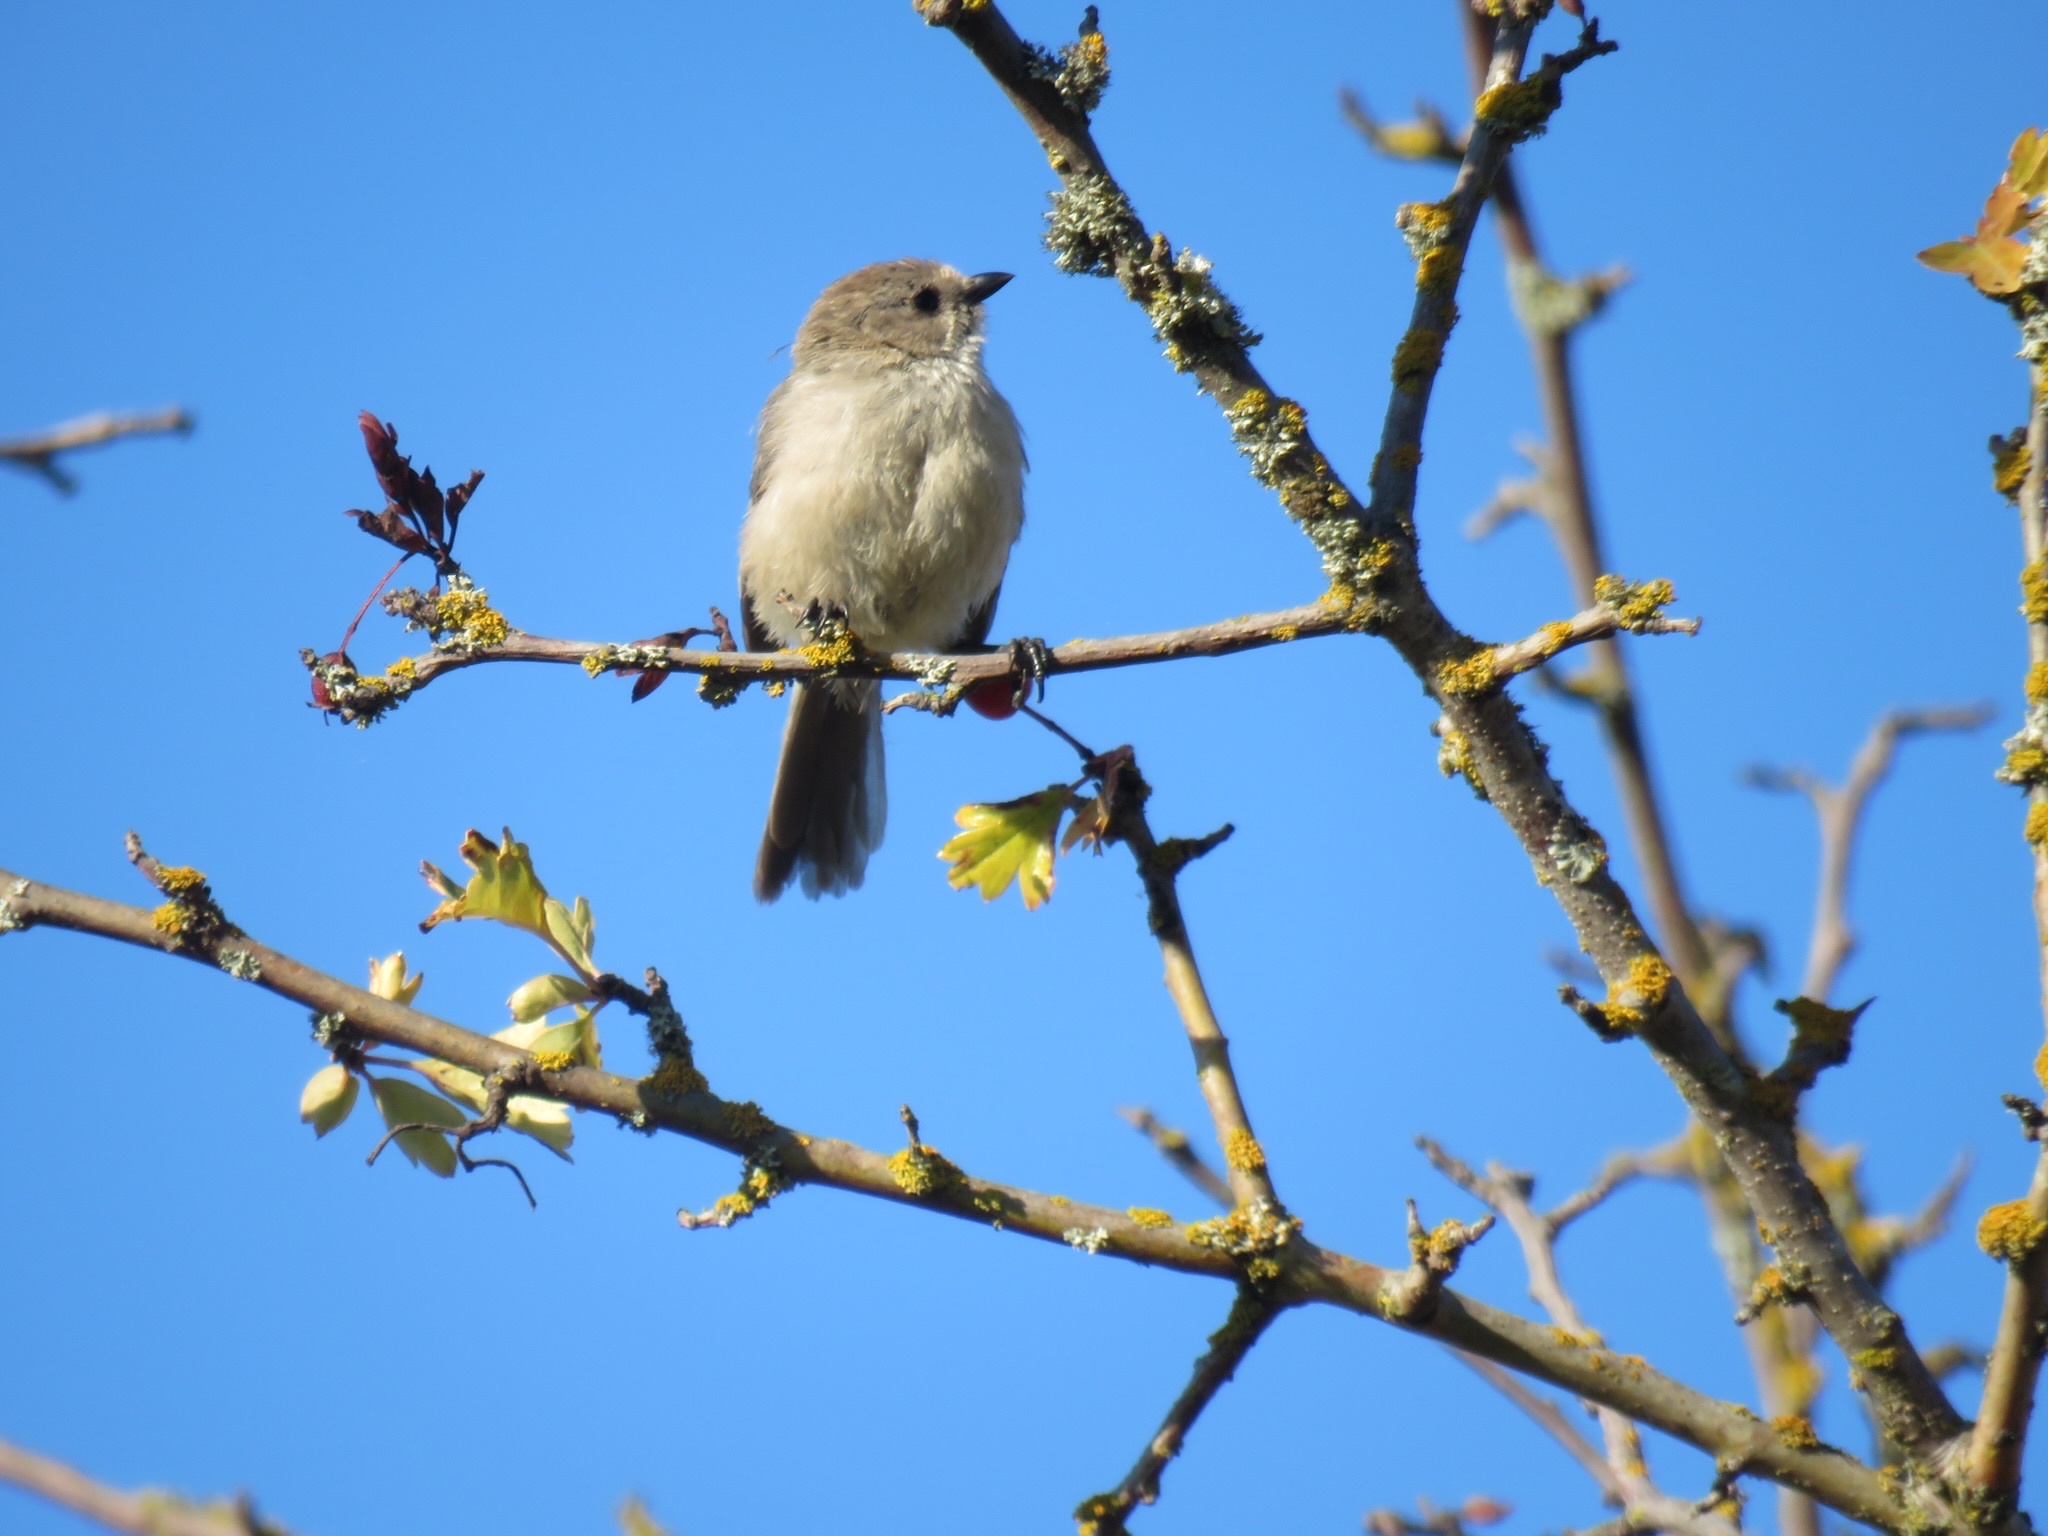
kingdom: Animalia
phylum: Chordata
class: Aves
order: Passeriformes
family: Aegithalidae
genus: Psaltriparus
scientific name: Psaltriparus minimus
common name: American bushtit
